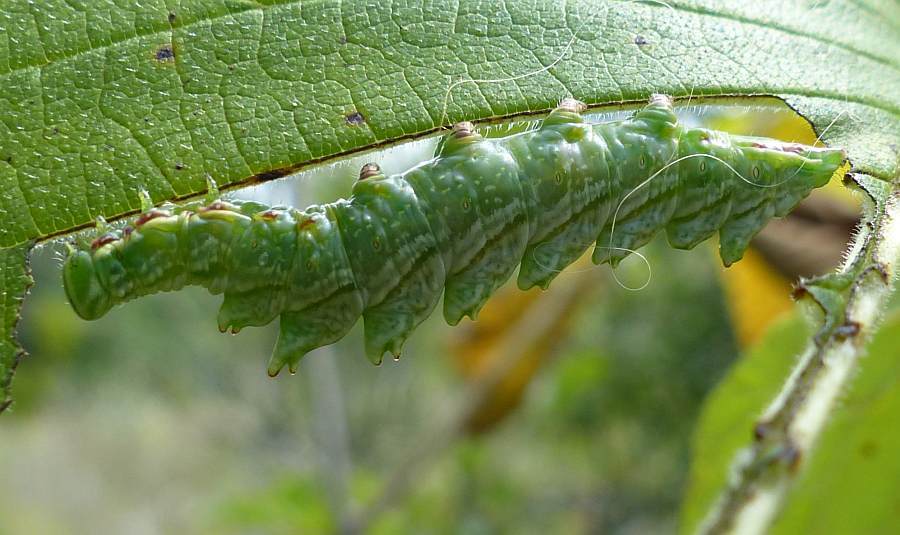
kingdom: Animalia
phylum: Arthropoda
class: Insecta
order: Lepidoptera
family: Notodontidae
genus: Nerice
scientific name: Nerice bidentata
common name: Double-toothed prominent
